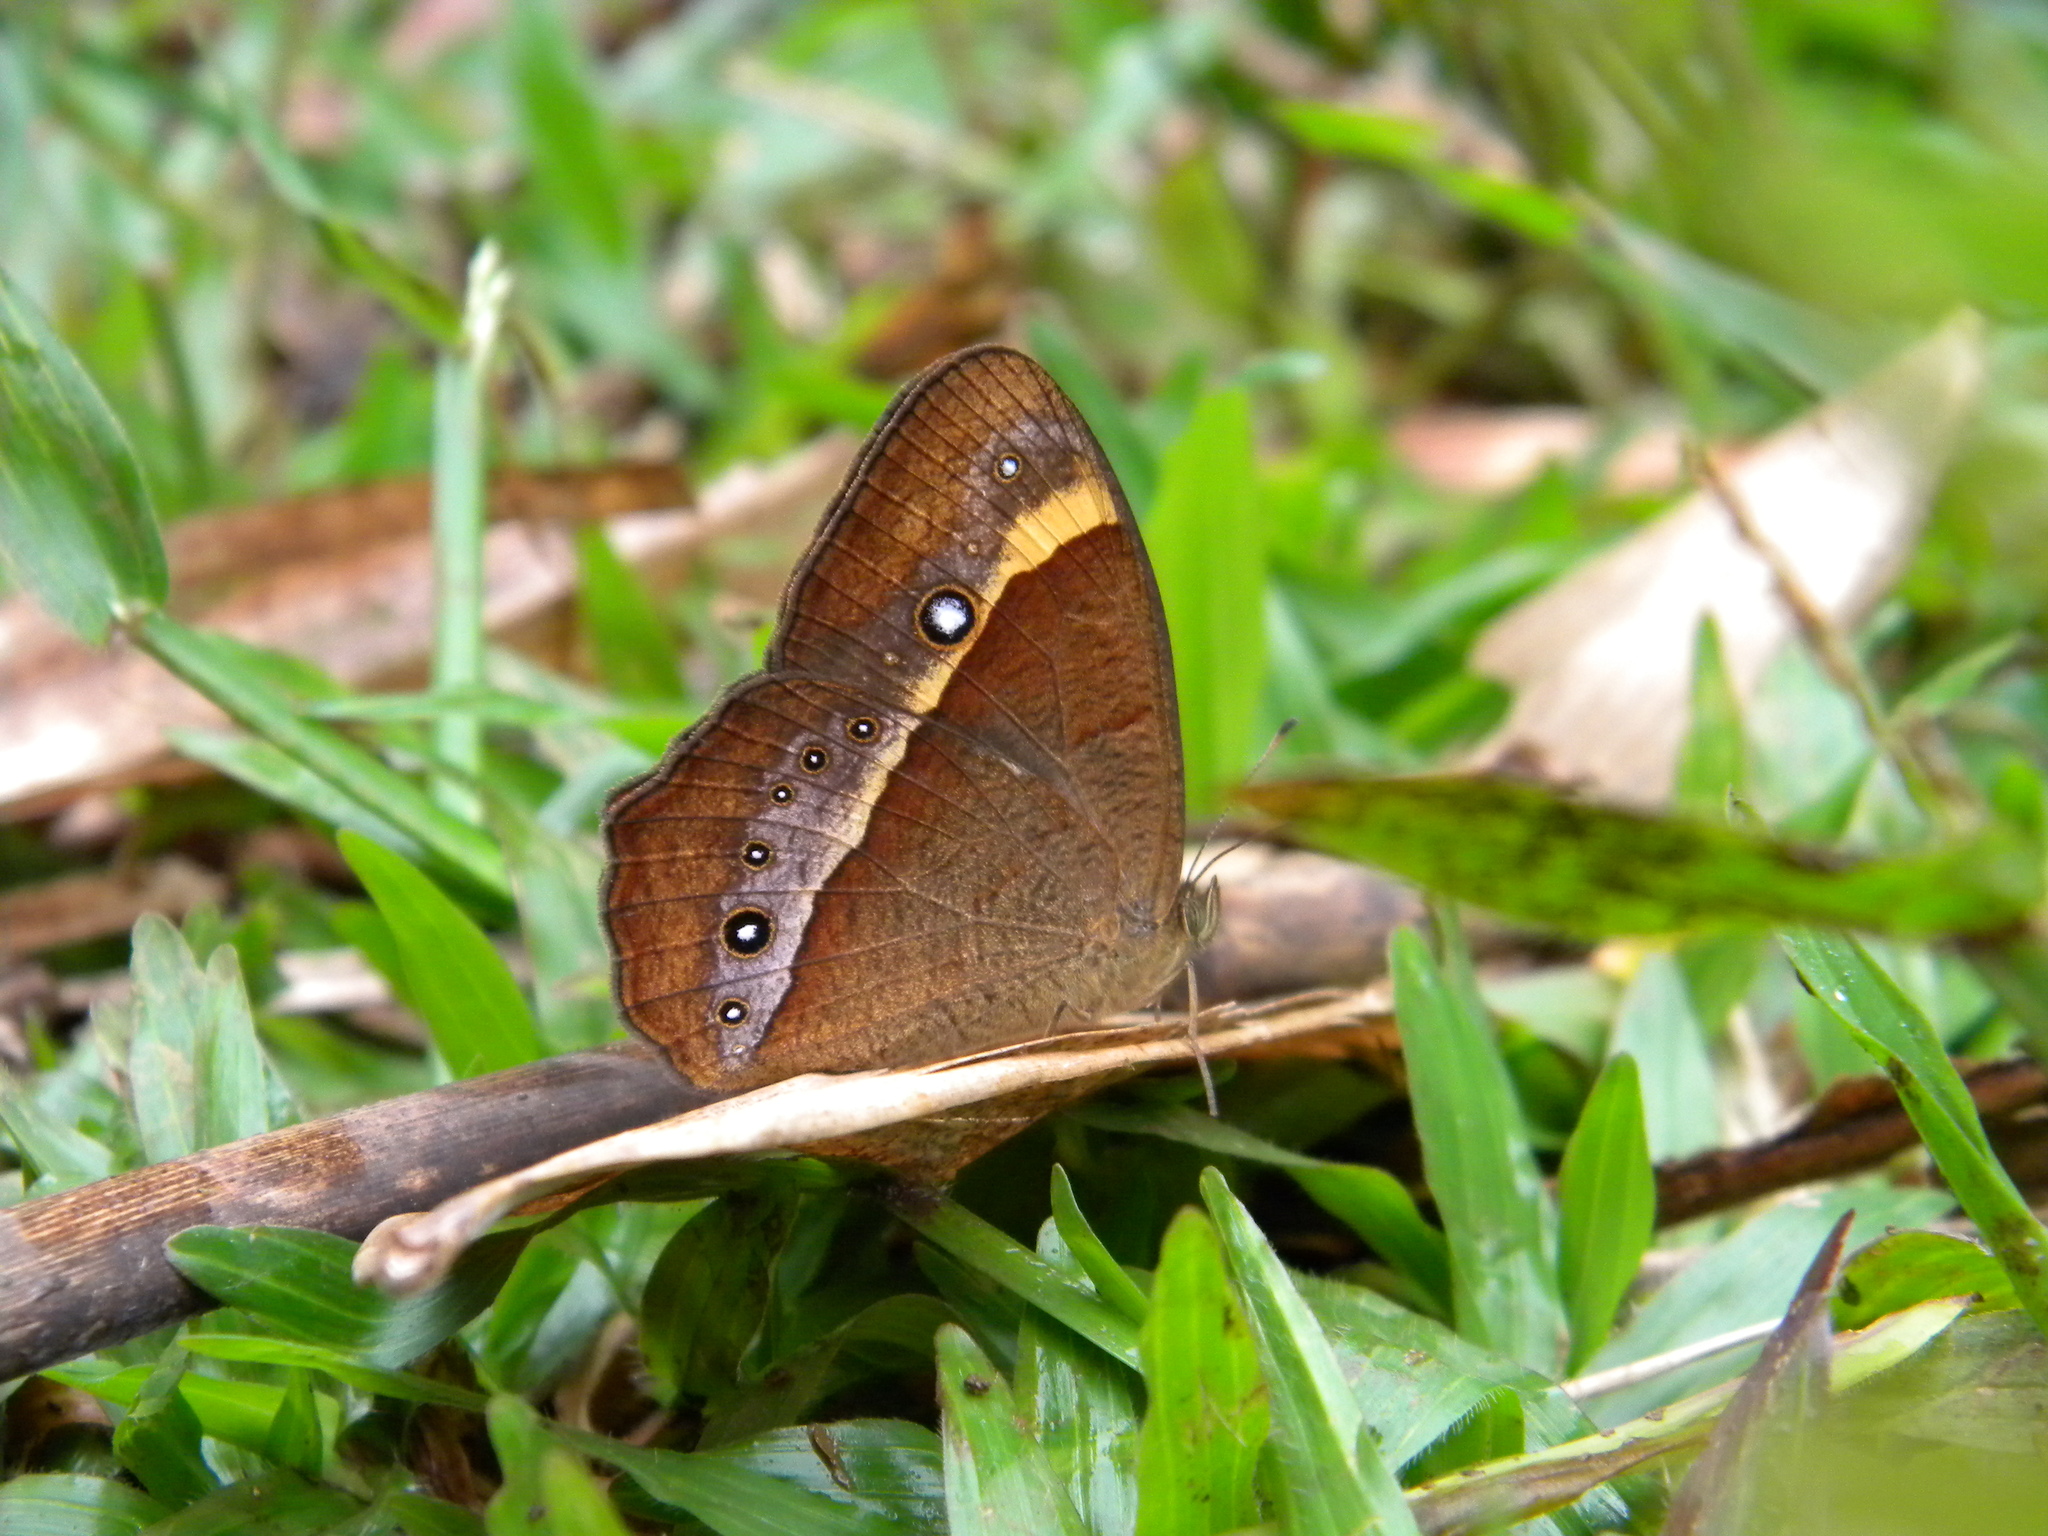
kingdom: Animalia
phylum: Arthropoda
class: Insecta
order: Lepidoptera
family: Nymphalidae
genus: Mycalesis
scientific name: Mycalesis Telinga oculus
